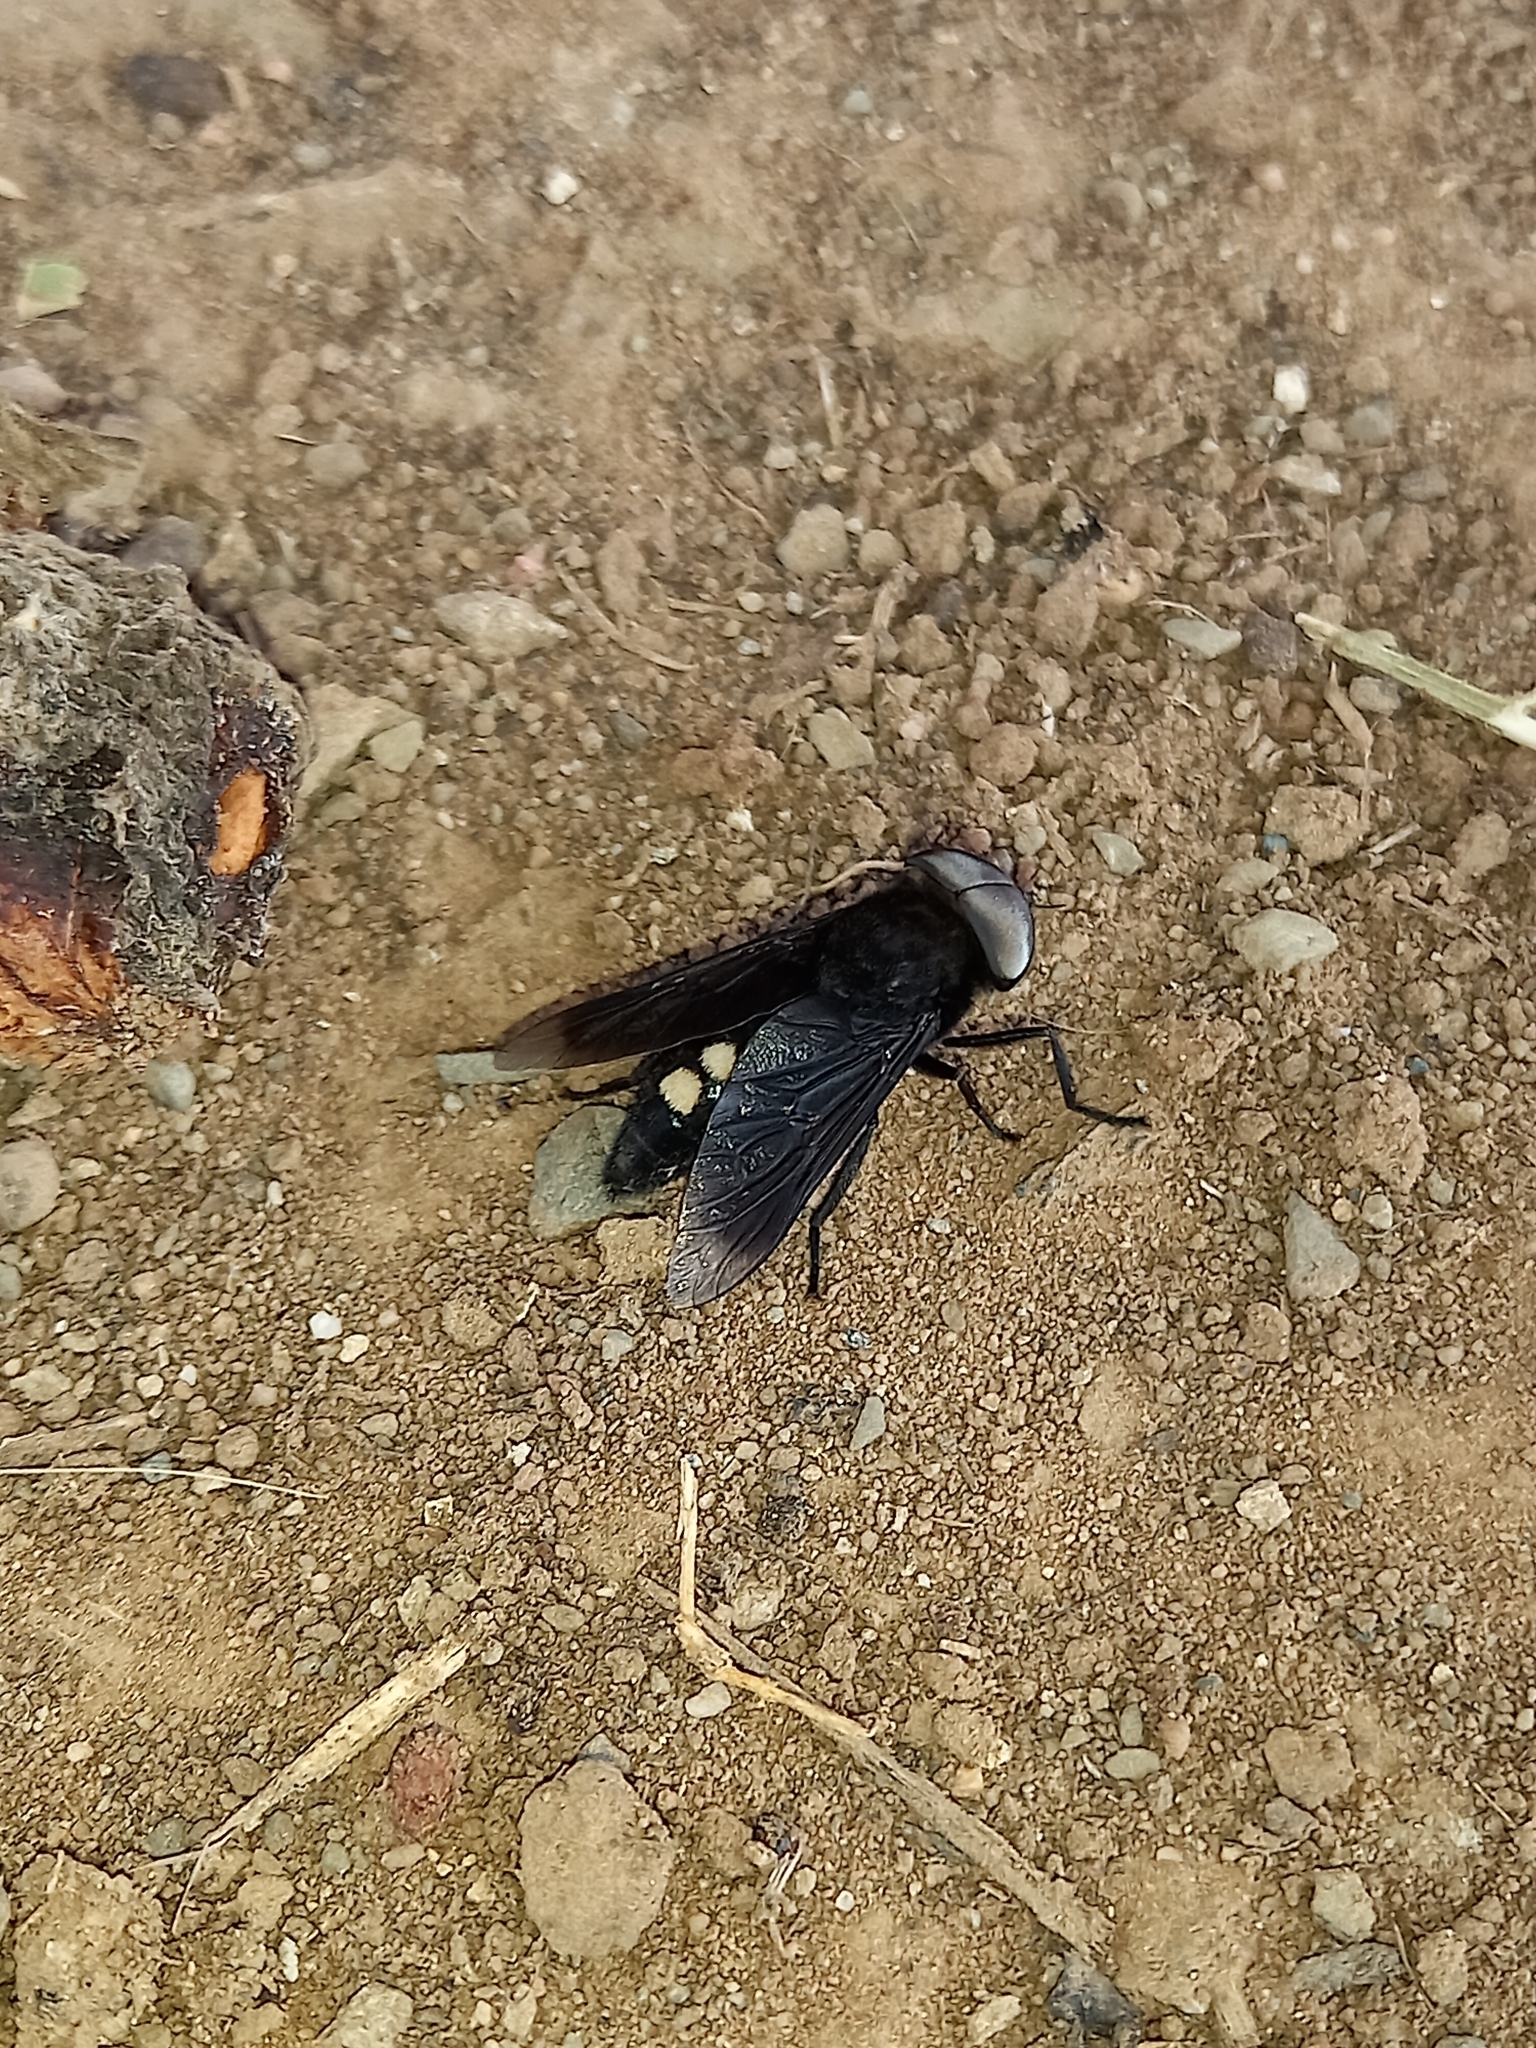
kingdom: Animalia
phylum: Arthropoda
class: Insecta
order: Diptera
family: Tabanidae
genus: Tabanus
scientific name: Tabanus biguttatus
